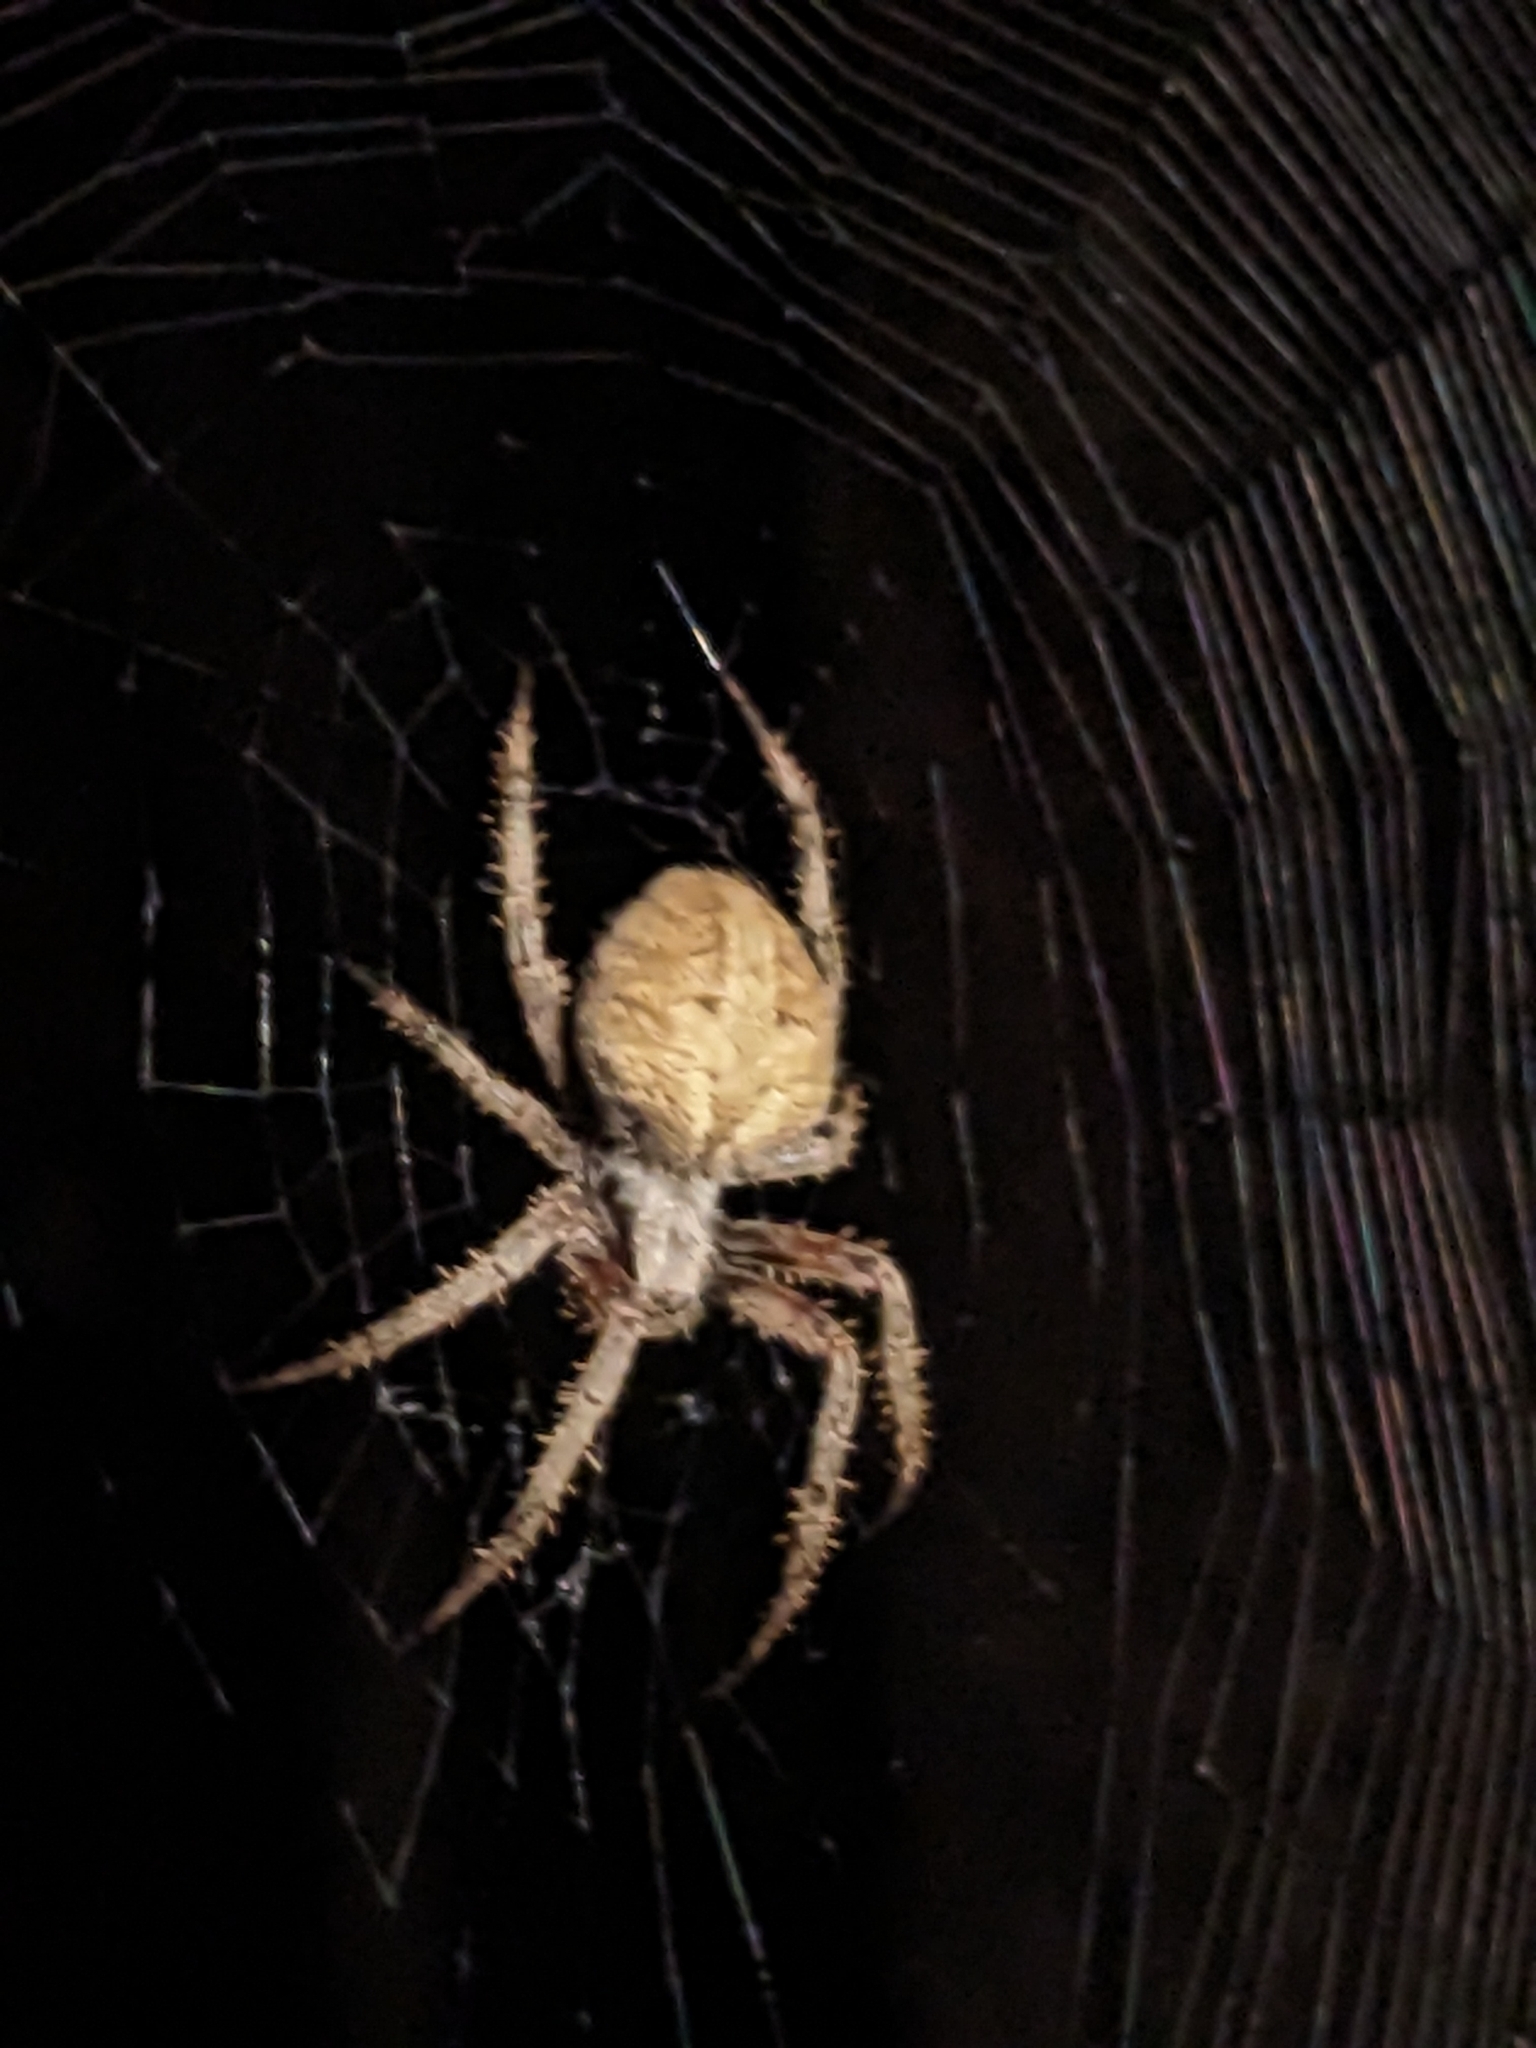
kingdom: Animalia
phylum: Arthropoda
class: Arachnida
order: Araneae
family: Araneidae
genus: Neoscona
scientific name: Neoscona crucifera
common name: Spotted orbweaver
